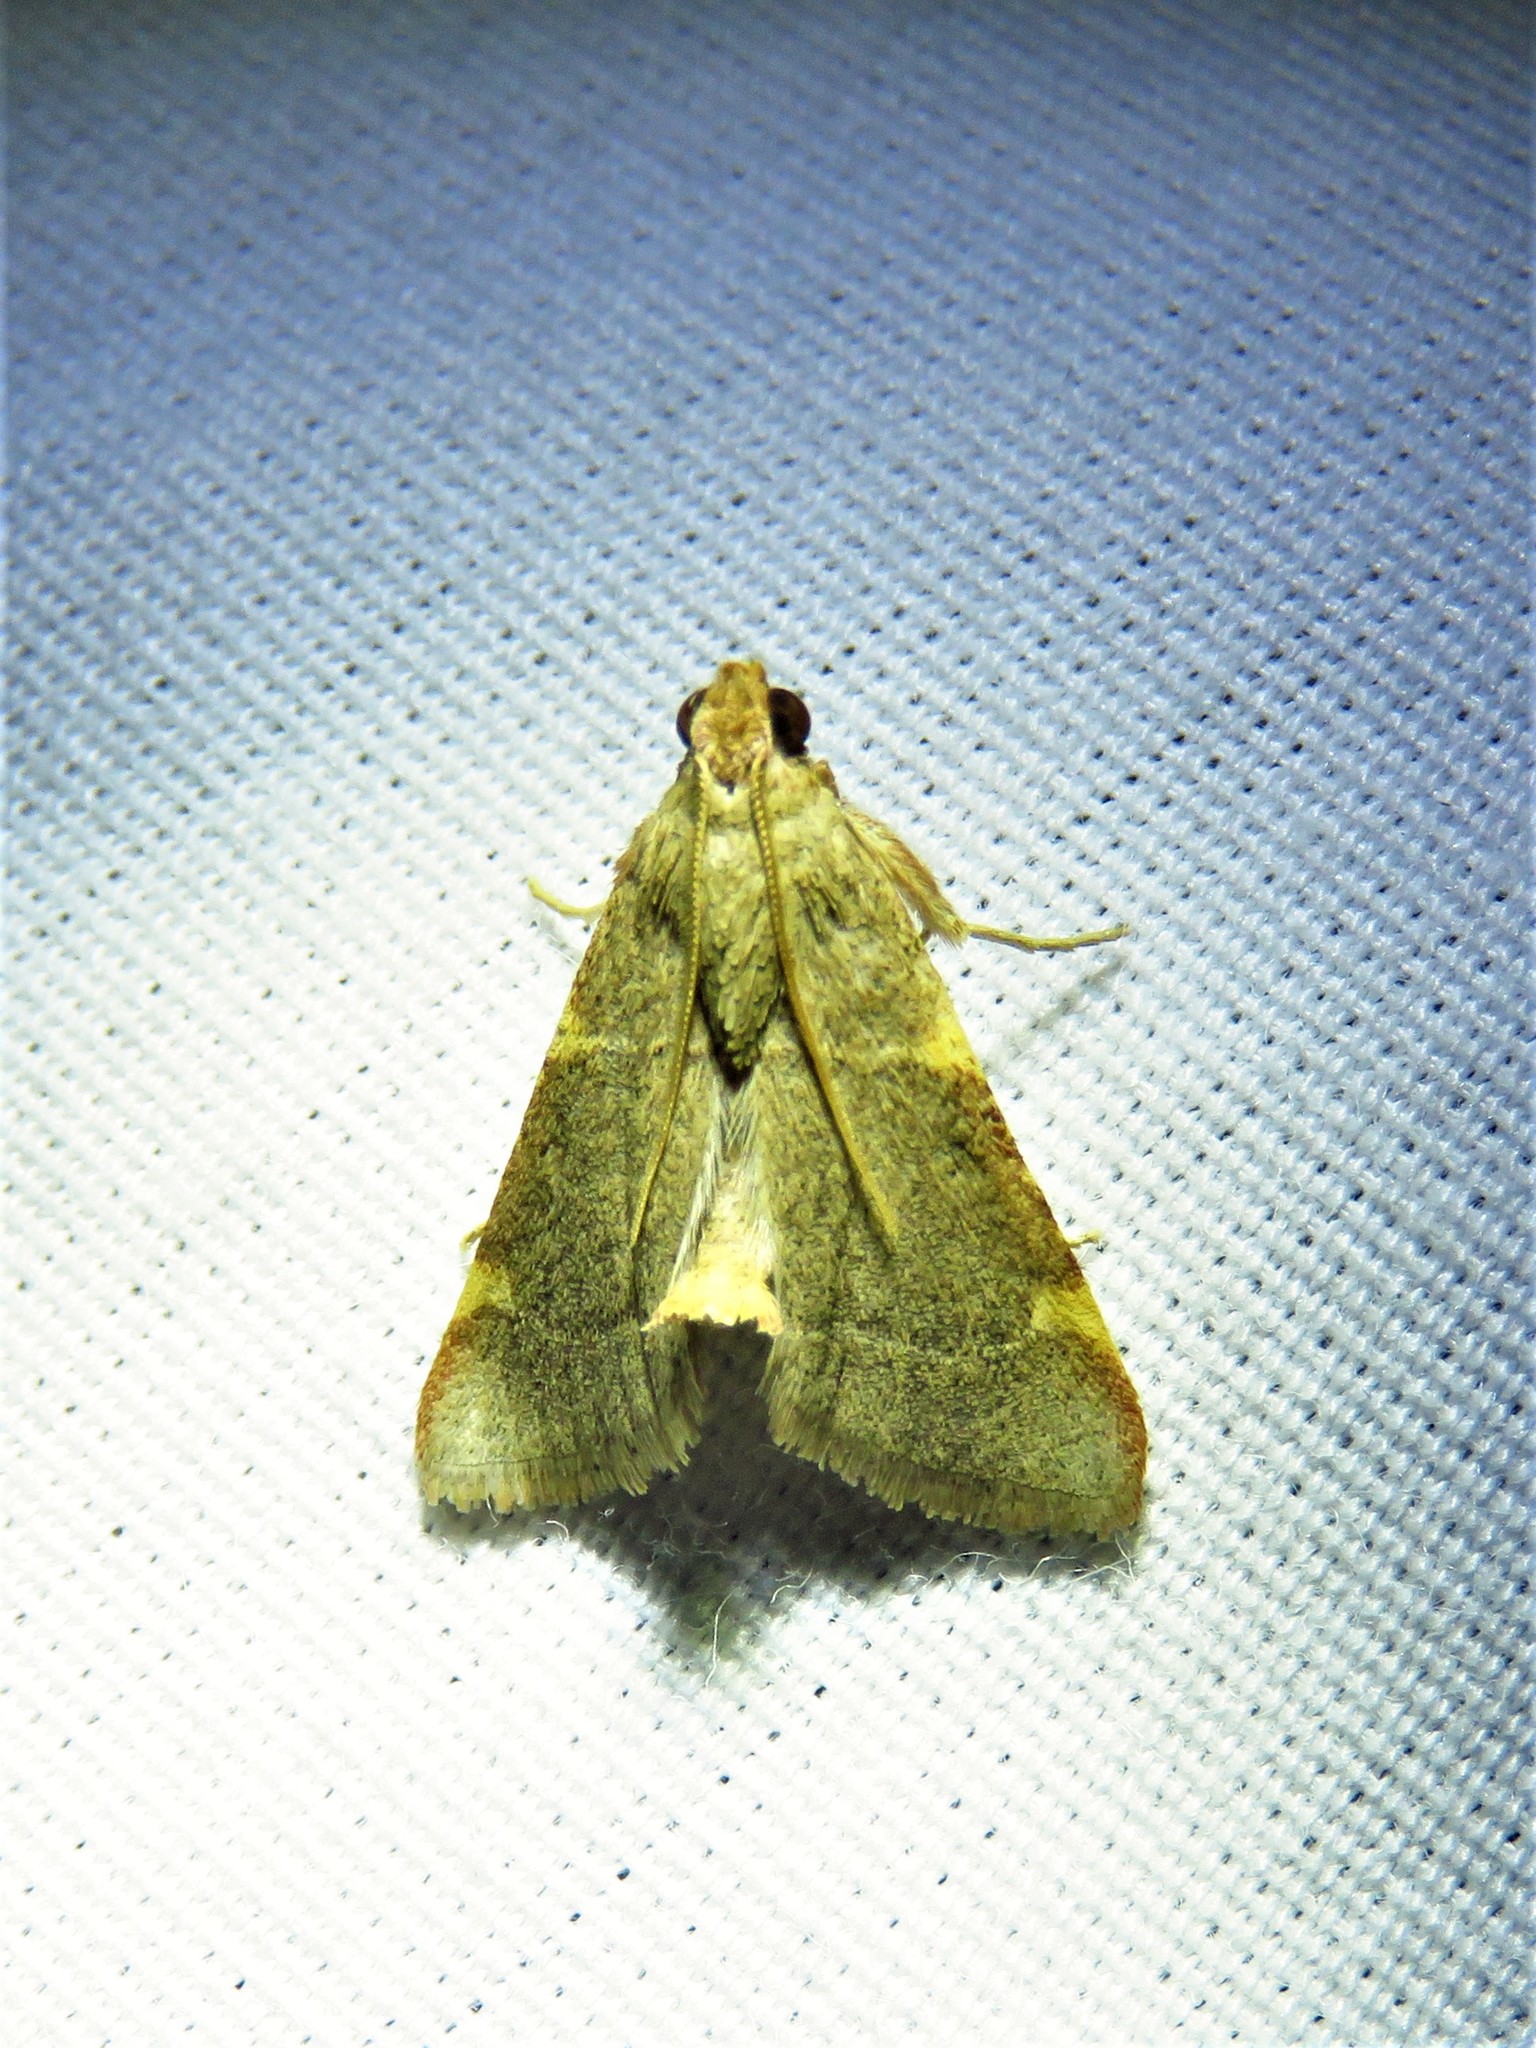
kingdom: Animalia
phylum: Arthropoda
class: Insecta
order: Lepidoptera
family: Pyralidae
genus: Hypsopygia
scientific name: Hypsopygia binodulalis
